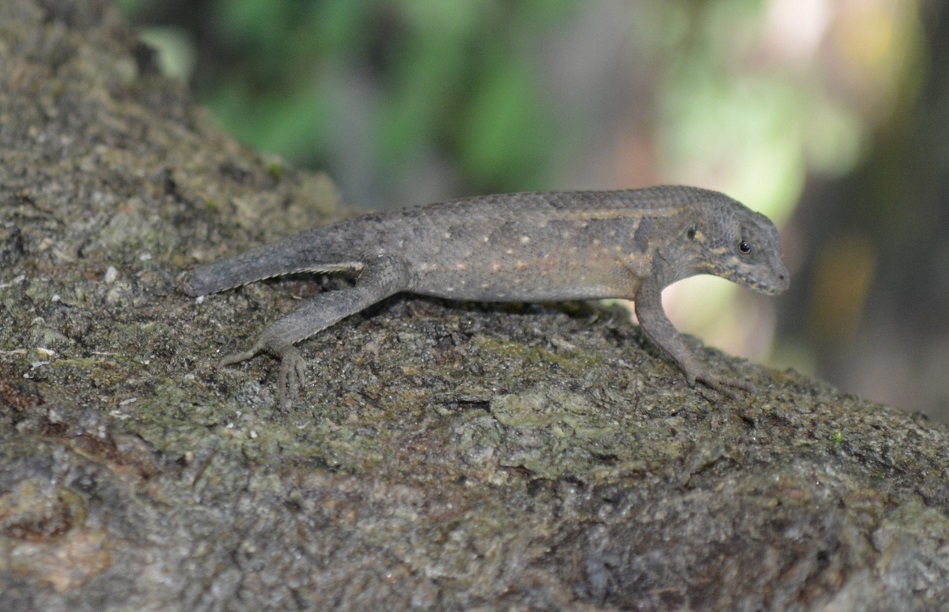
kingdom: Animalia
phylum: Chordata
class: Squamata
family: Phrynosomatidae
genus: Sceloporus
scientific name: Sceloporus siniferus
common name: Longtail spiny lizard
